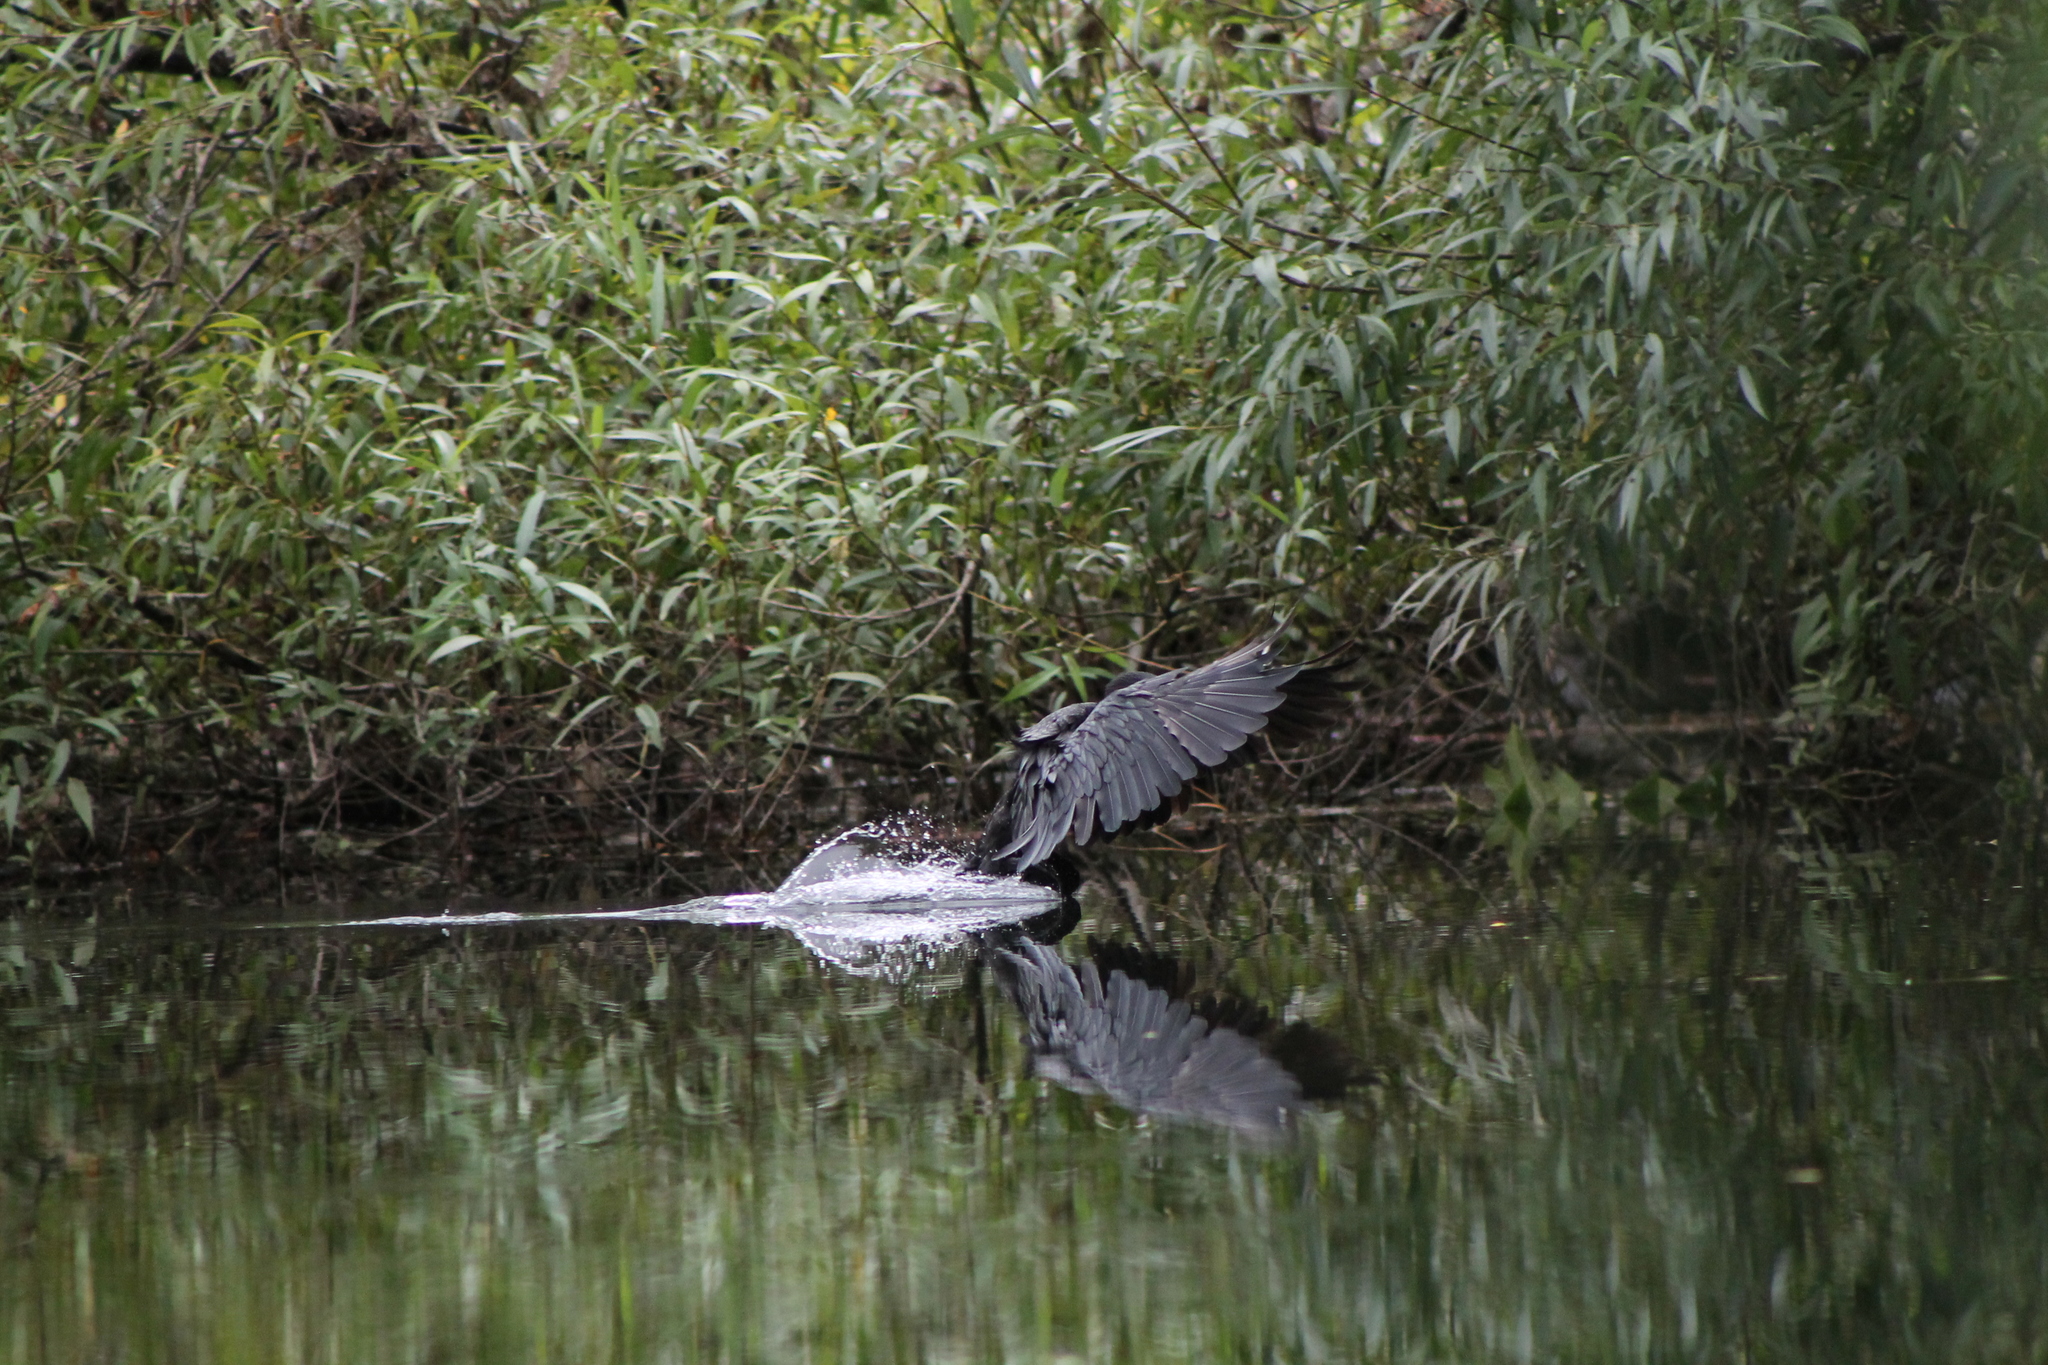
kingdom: Animalia
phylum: Chordata
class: Aves
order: Suliformes
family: Phalacrocoracidae
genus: Microcarbo
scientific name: Microcarbo melanoleucos
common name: Little pied cormorant
